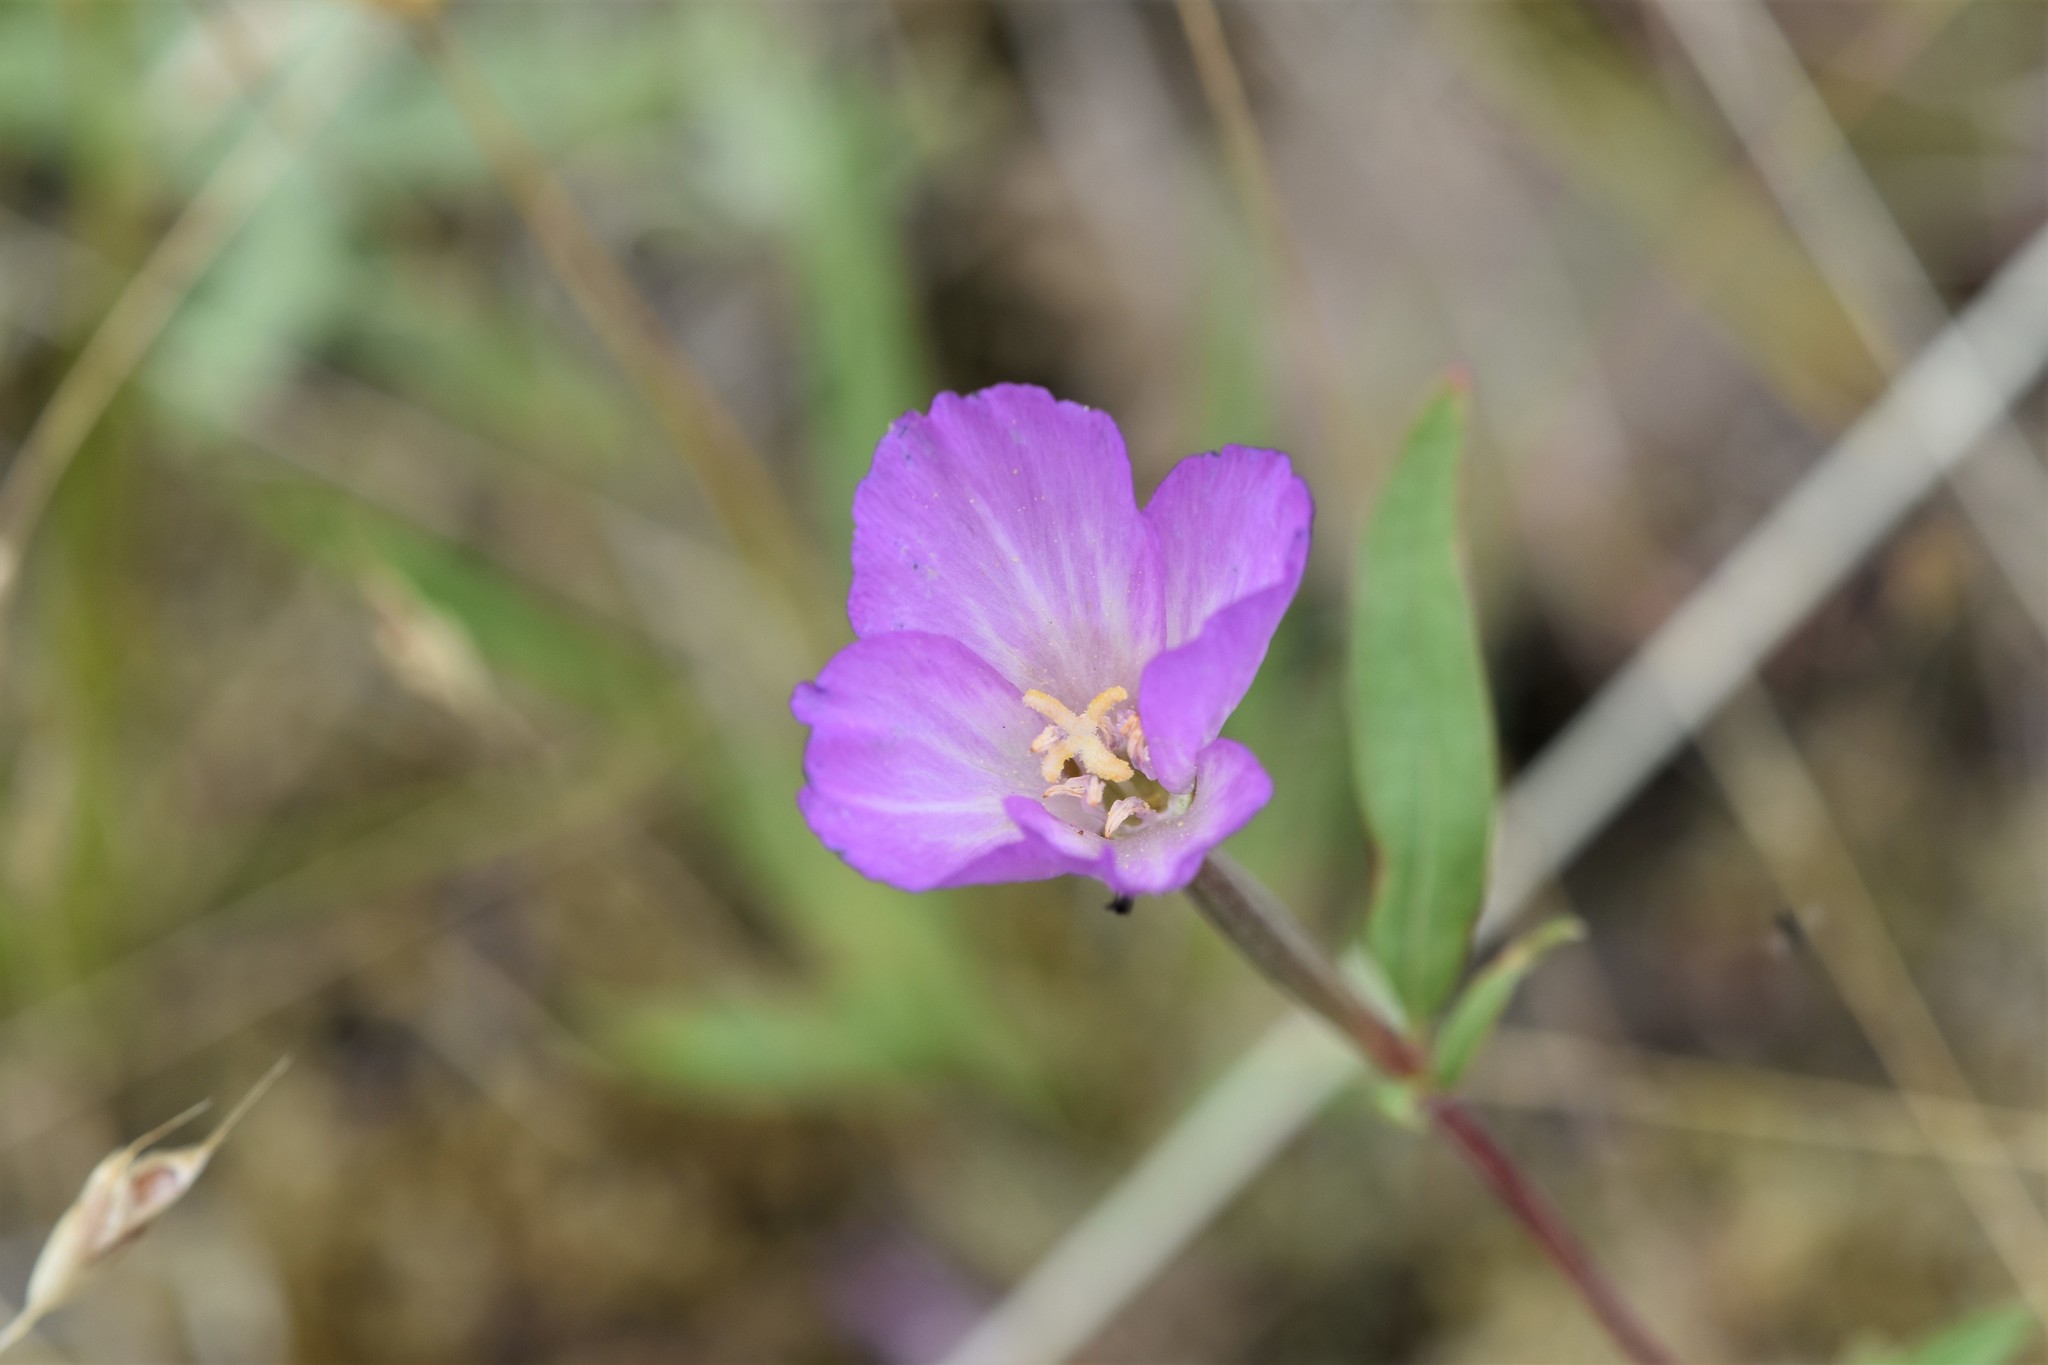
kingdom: Plantae
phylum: Tracheophyta
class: Magnoliopsida
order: Myrtales
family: Onagraceae
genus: Clarkia
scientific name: Clarkia amoena
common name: Godetia
